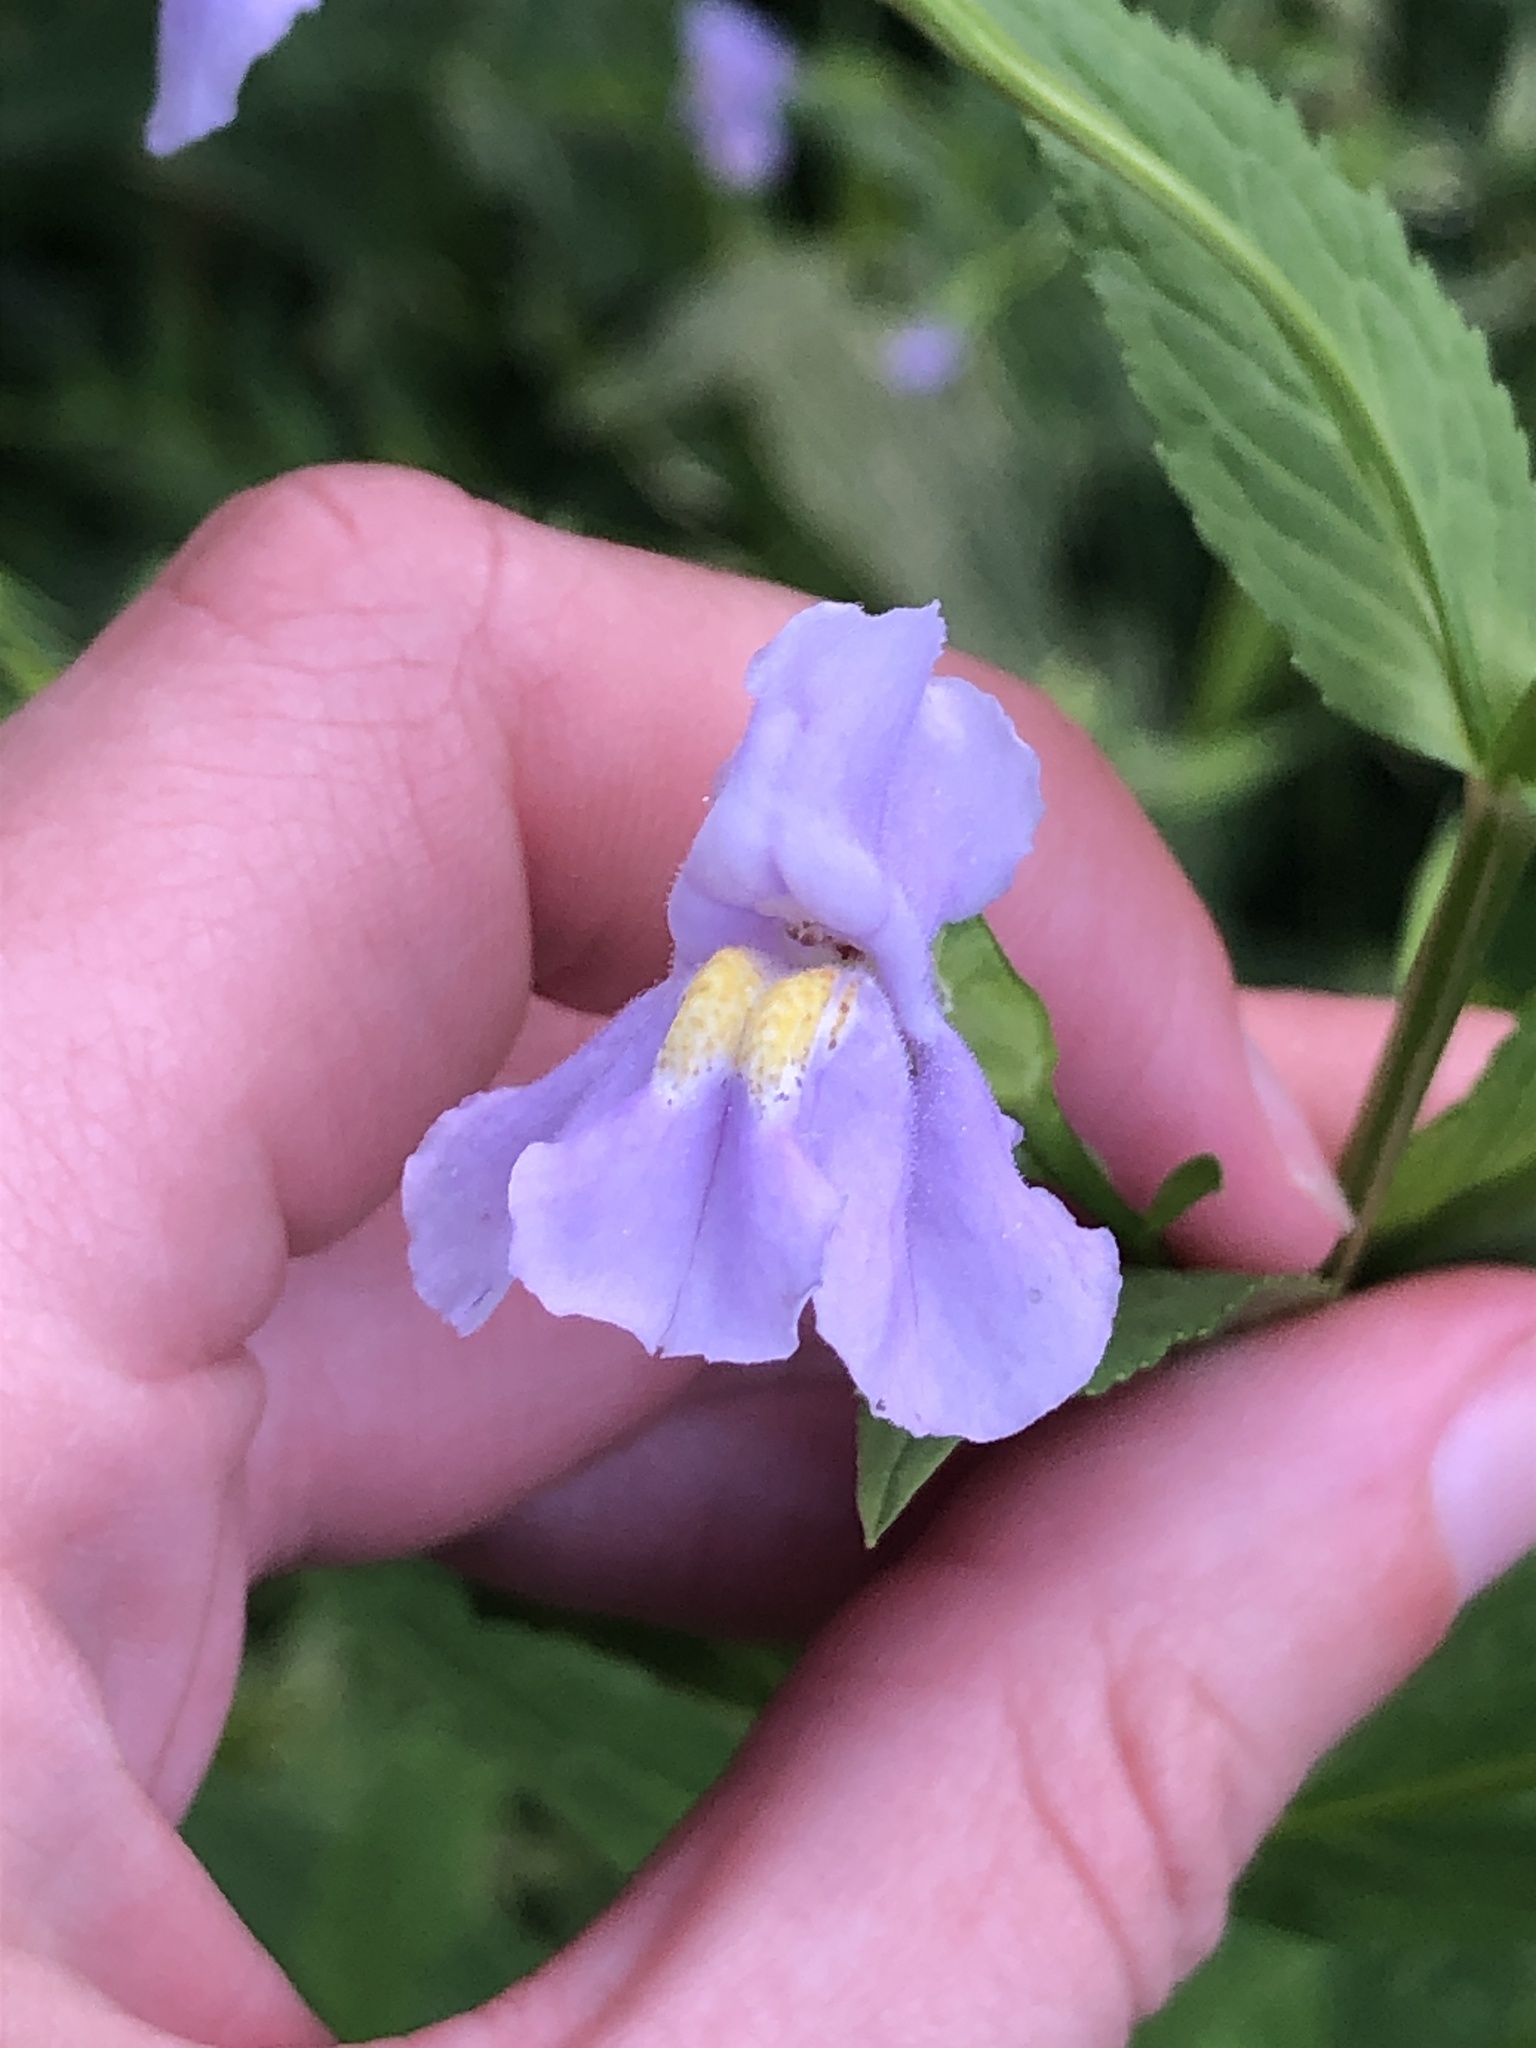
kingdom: Plantae
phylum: Tracheophyta
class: Magnoliopsida
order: Lamiales
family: Phrymaceae
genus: Mimulus
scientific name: Mimulus ringens
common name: Allegheny monkeyflower
